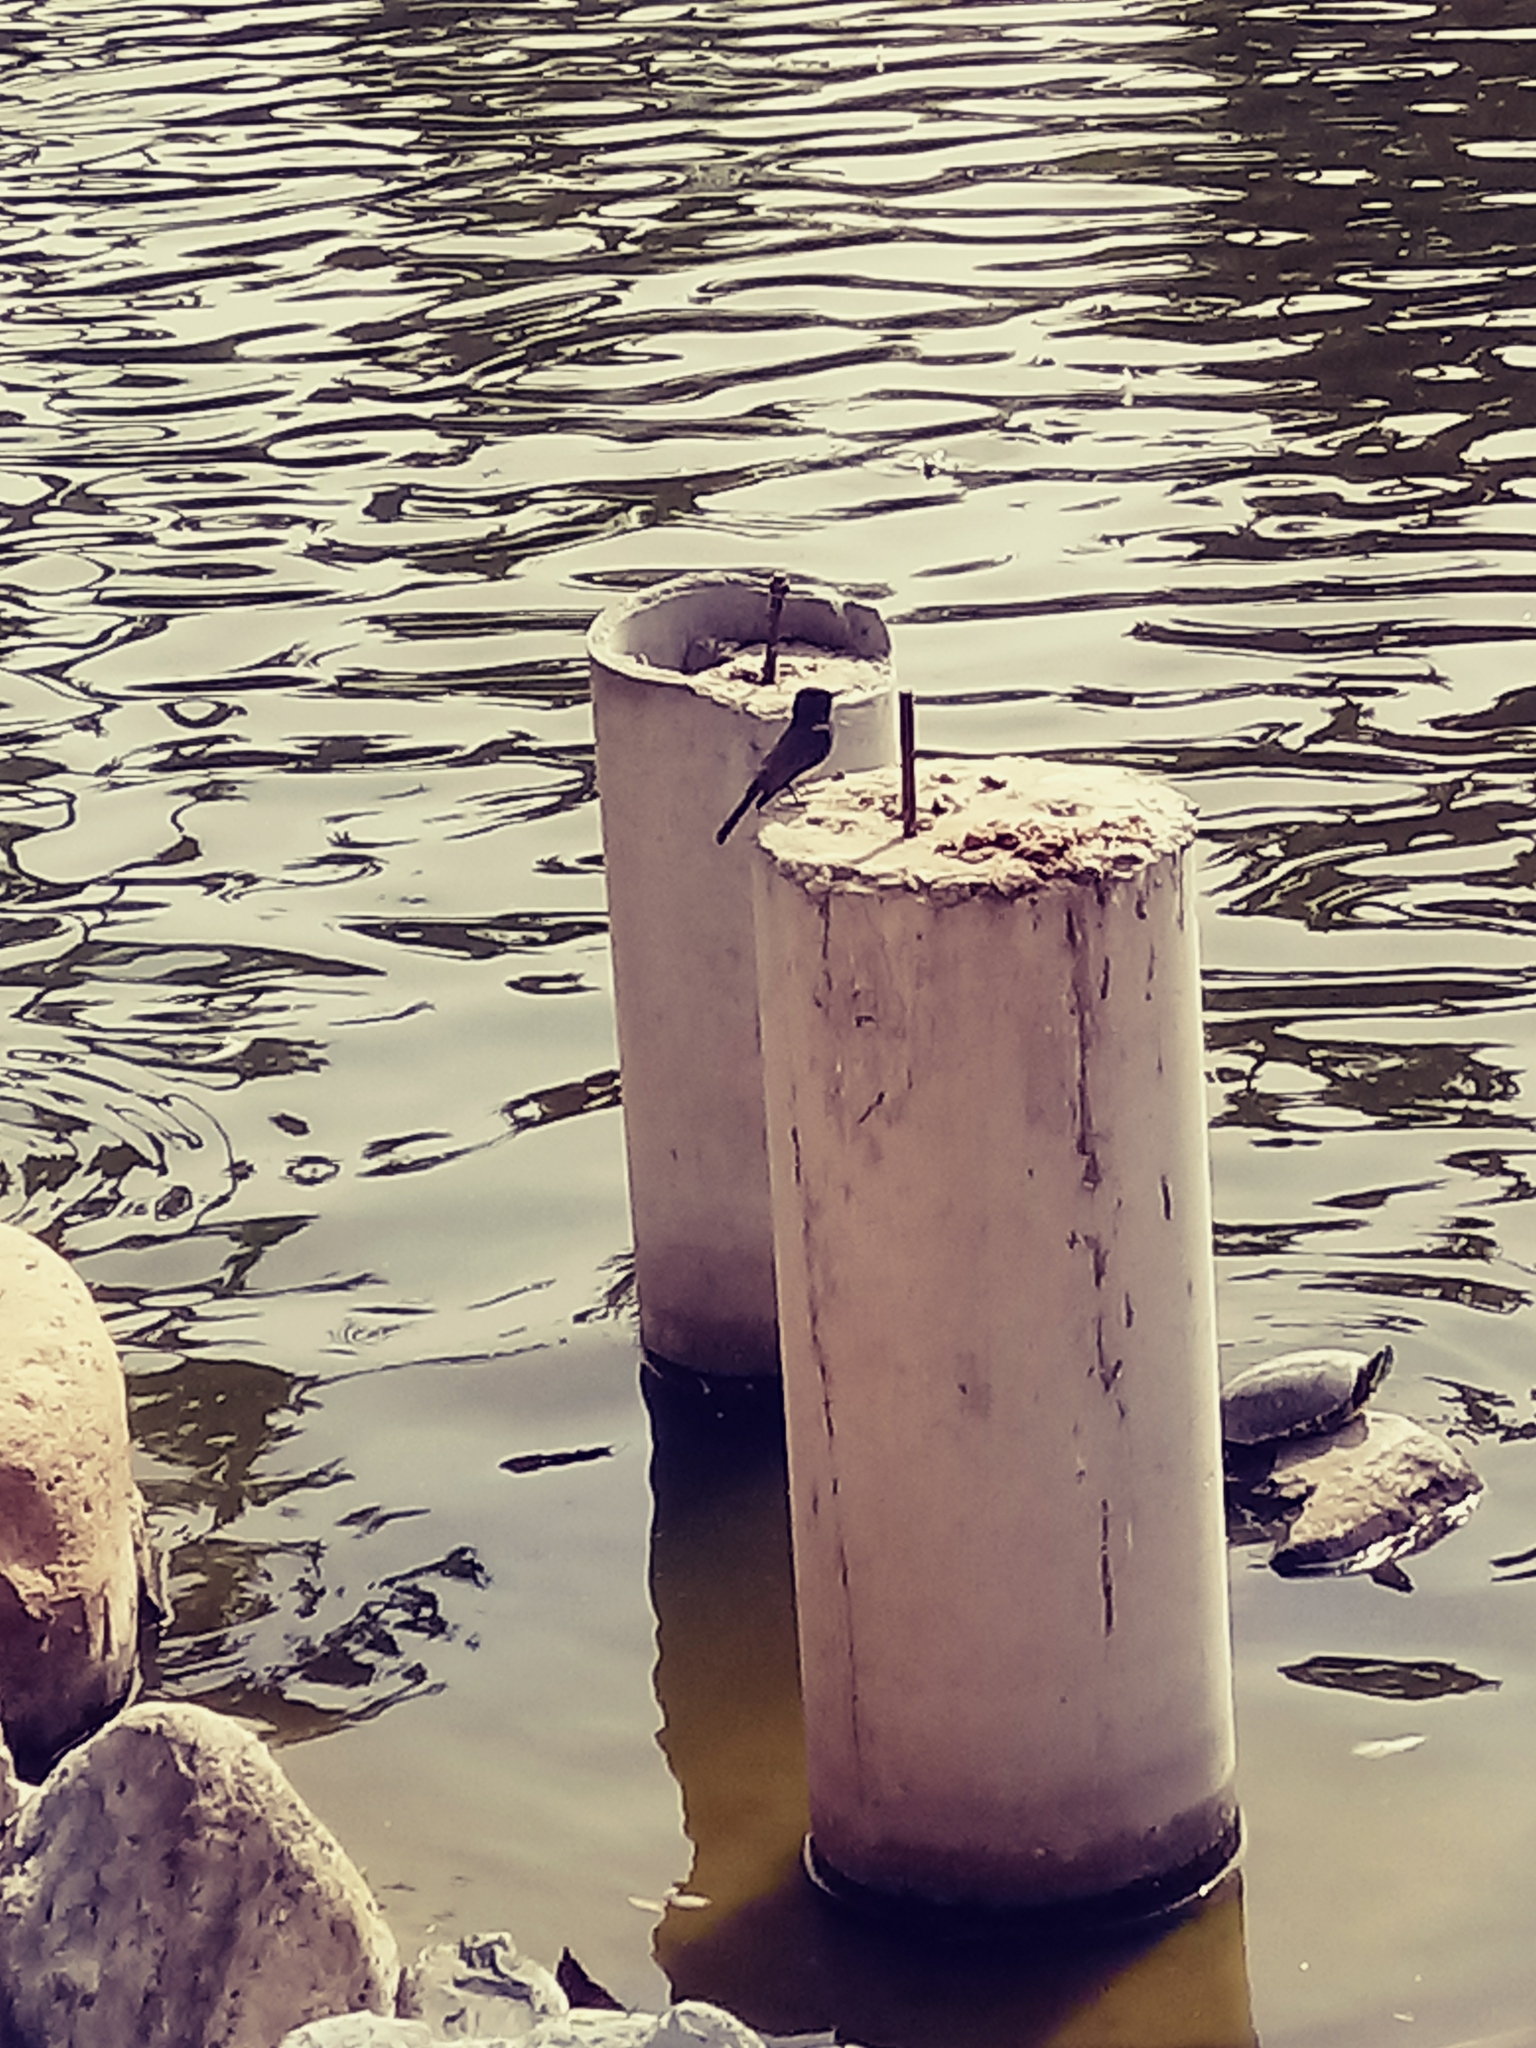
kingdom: Animalia
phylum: Chordata
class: Aves
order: Passeriformes
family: Tyrannidae
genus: Sayornis
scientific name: Sayornis nigricans
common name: Black phoebe
